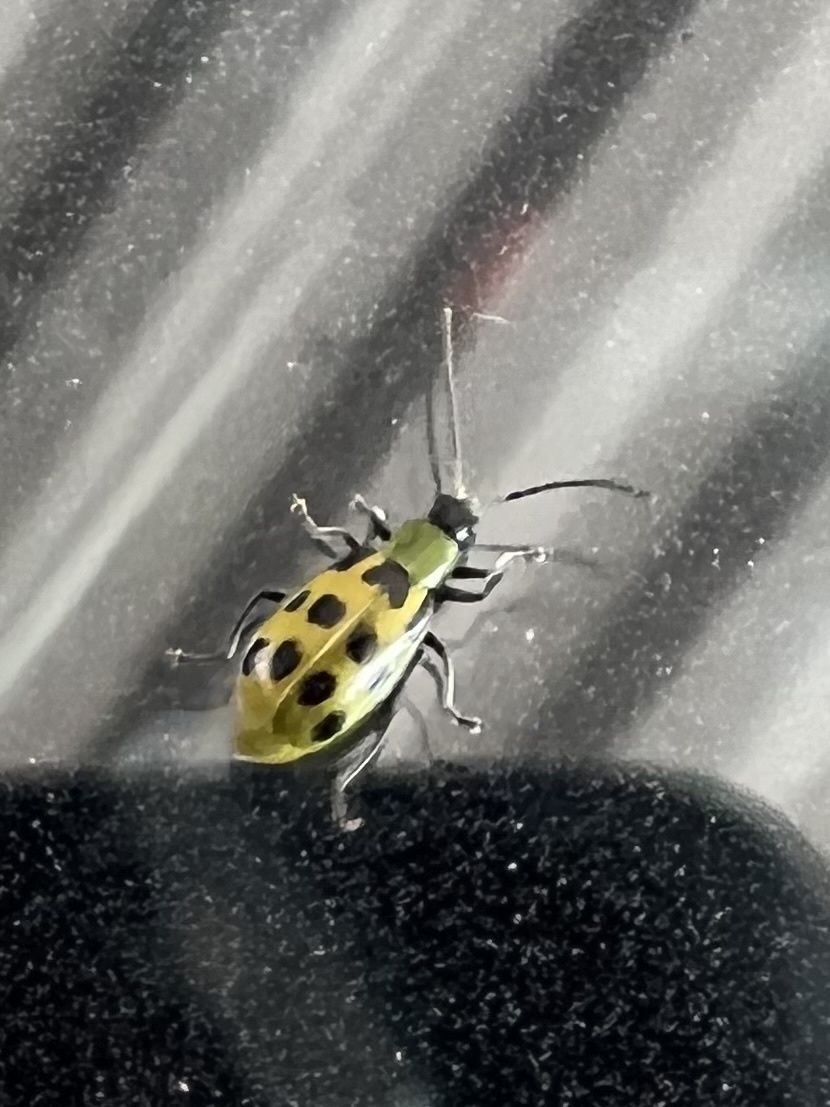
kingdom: Animalia
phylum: Arthropoda
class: Insecta
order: Coleoptera
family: Chrysomelidae
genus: Diabrotica
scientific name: Diabrotica undecimpunctata
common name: Spotted cucumber beetle
